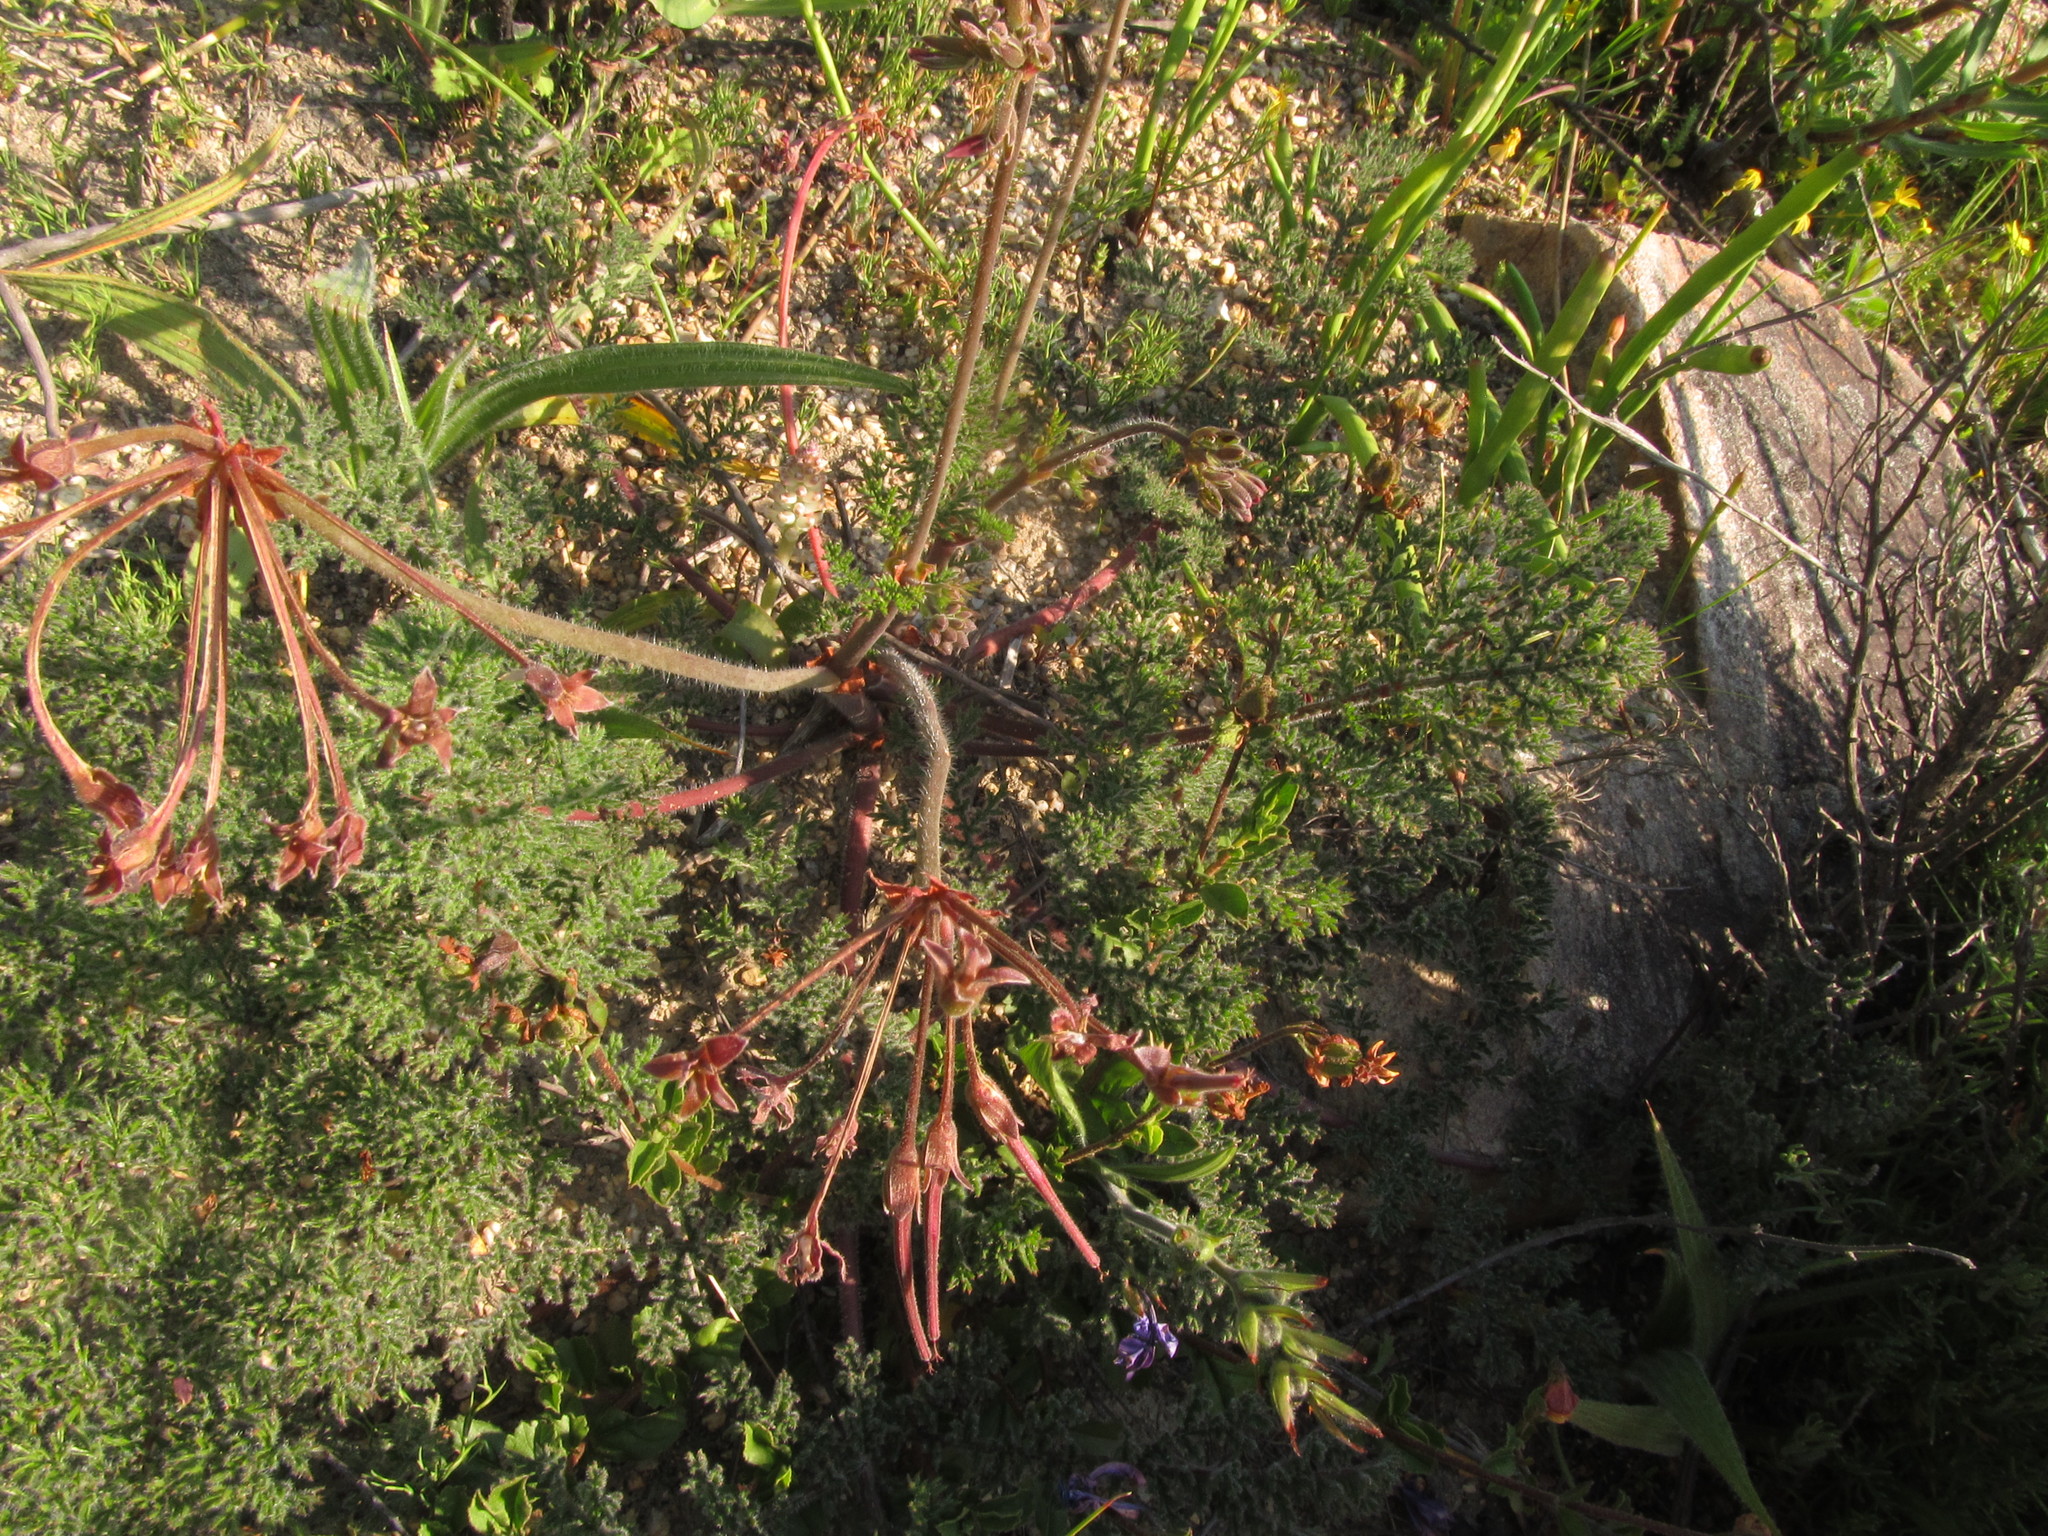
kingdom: Plantae
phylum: Tracheophyta
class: Magnoliopsida
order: Geraniales
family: Geraniaceae
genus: Pelargonium
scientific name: Pelargonium triste
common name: Night-scent pelargonium
